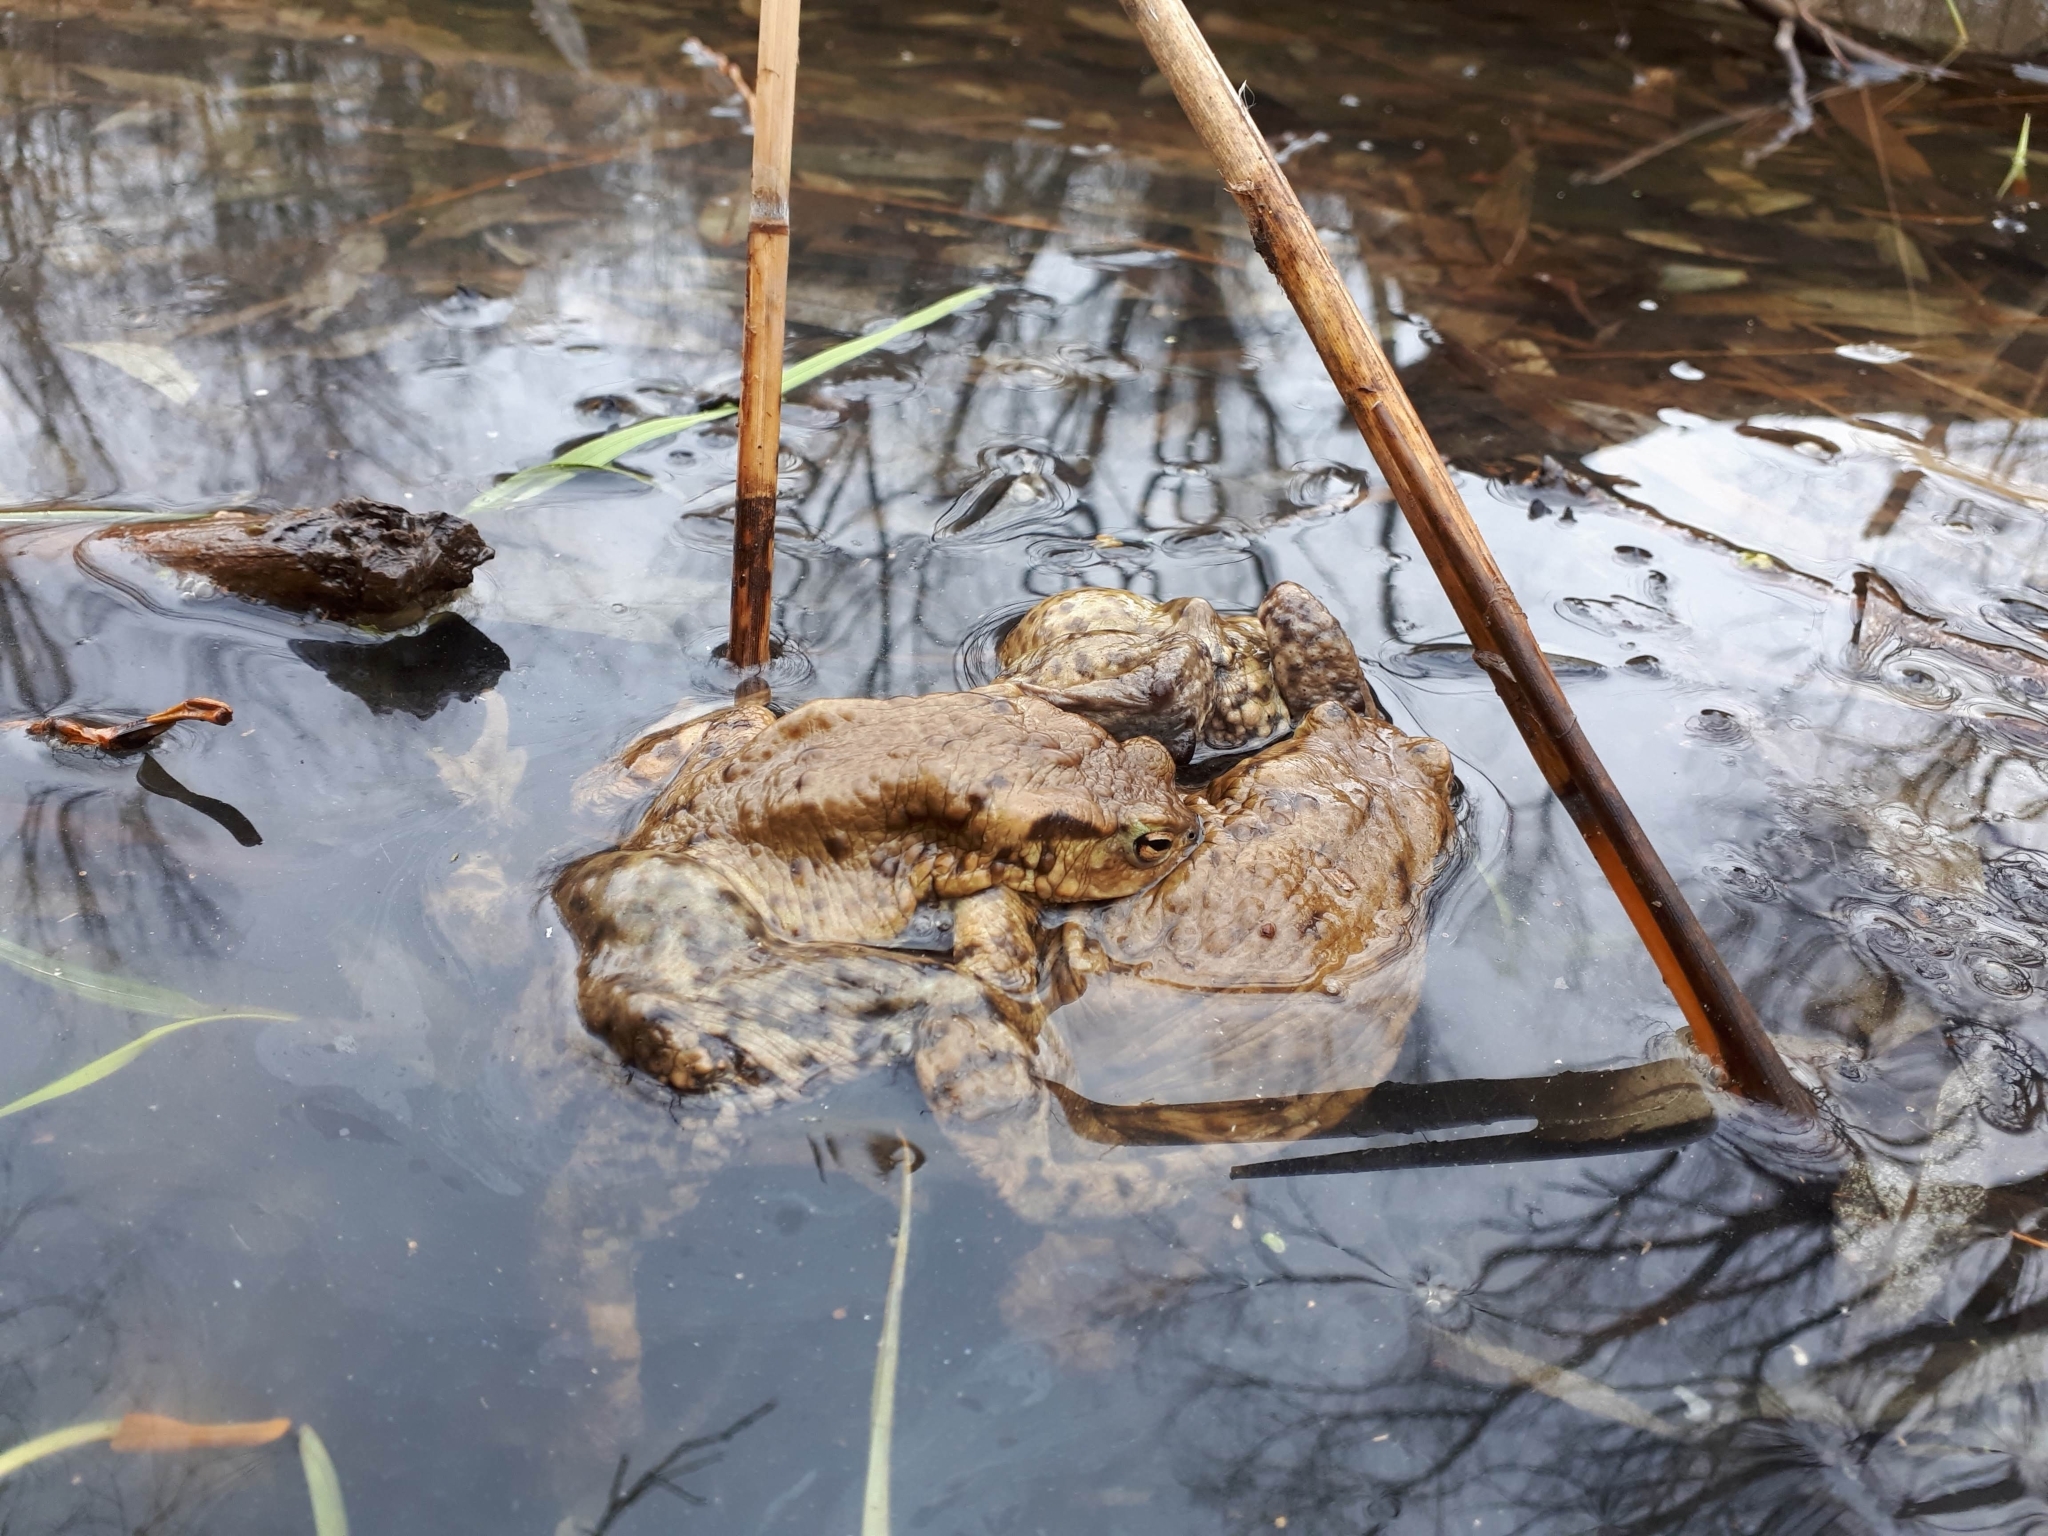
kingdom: Animalia
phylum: Chordata
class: Amphibia
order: Anura
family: Bufonidae
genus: Bufo
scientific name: Bufo bufo
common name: Common toad
